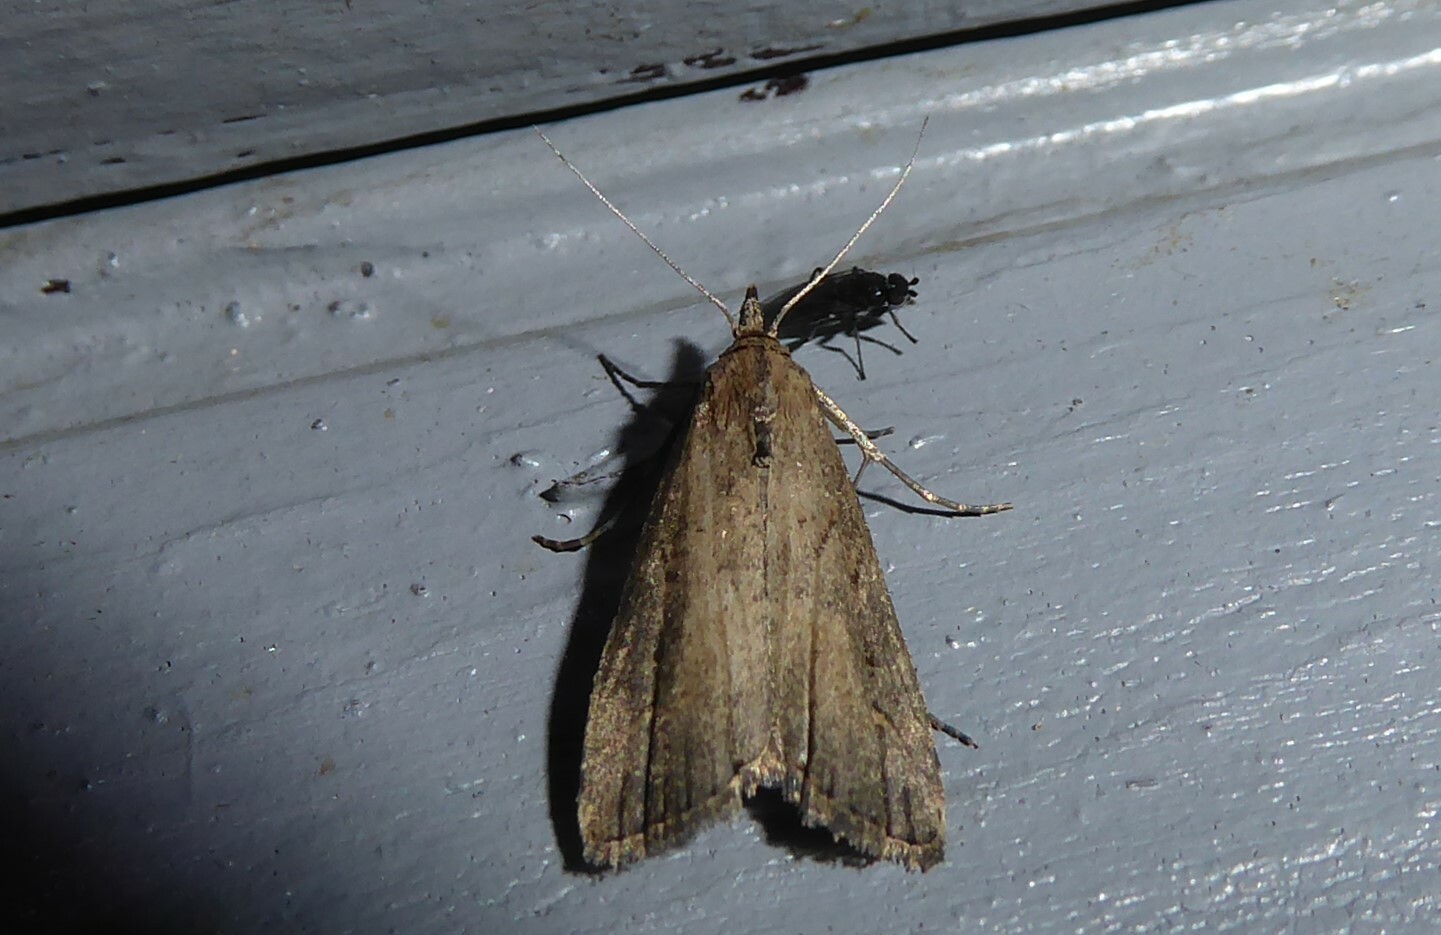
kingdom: Animalia
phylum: Arthropoda
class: Insecta
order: Lepidoptera
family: Erebidae
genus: Schrankia
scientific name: Schrankia costaestrigalis
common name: Pinion-streaked snout
